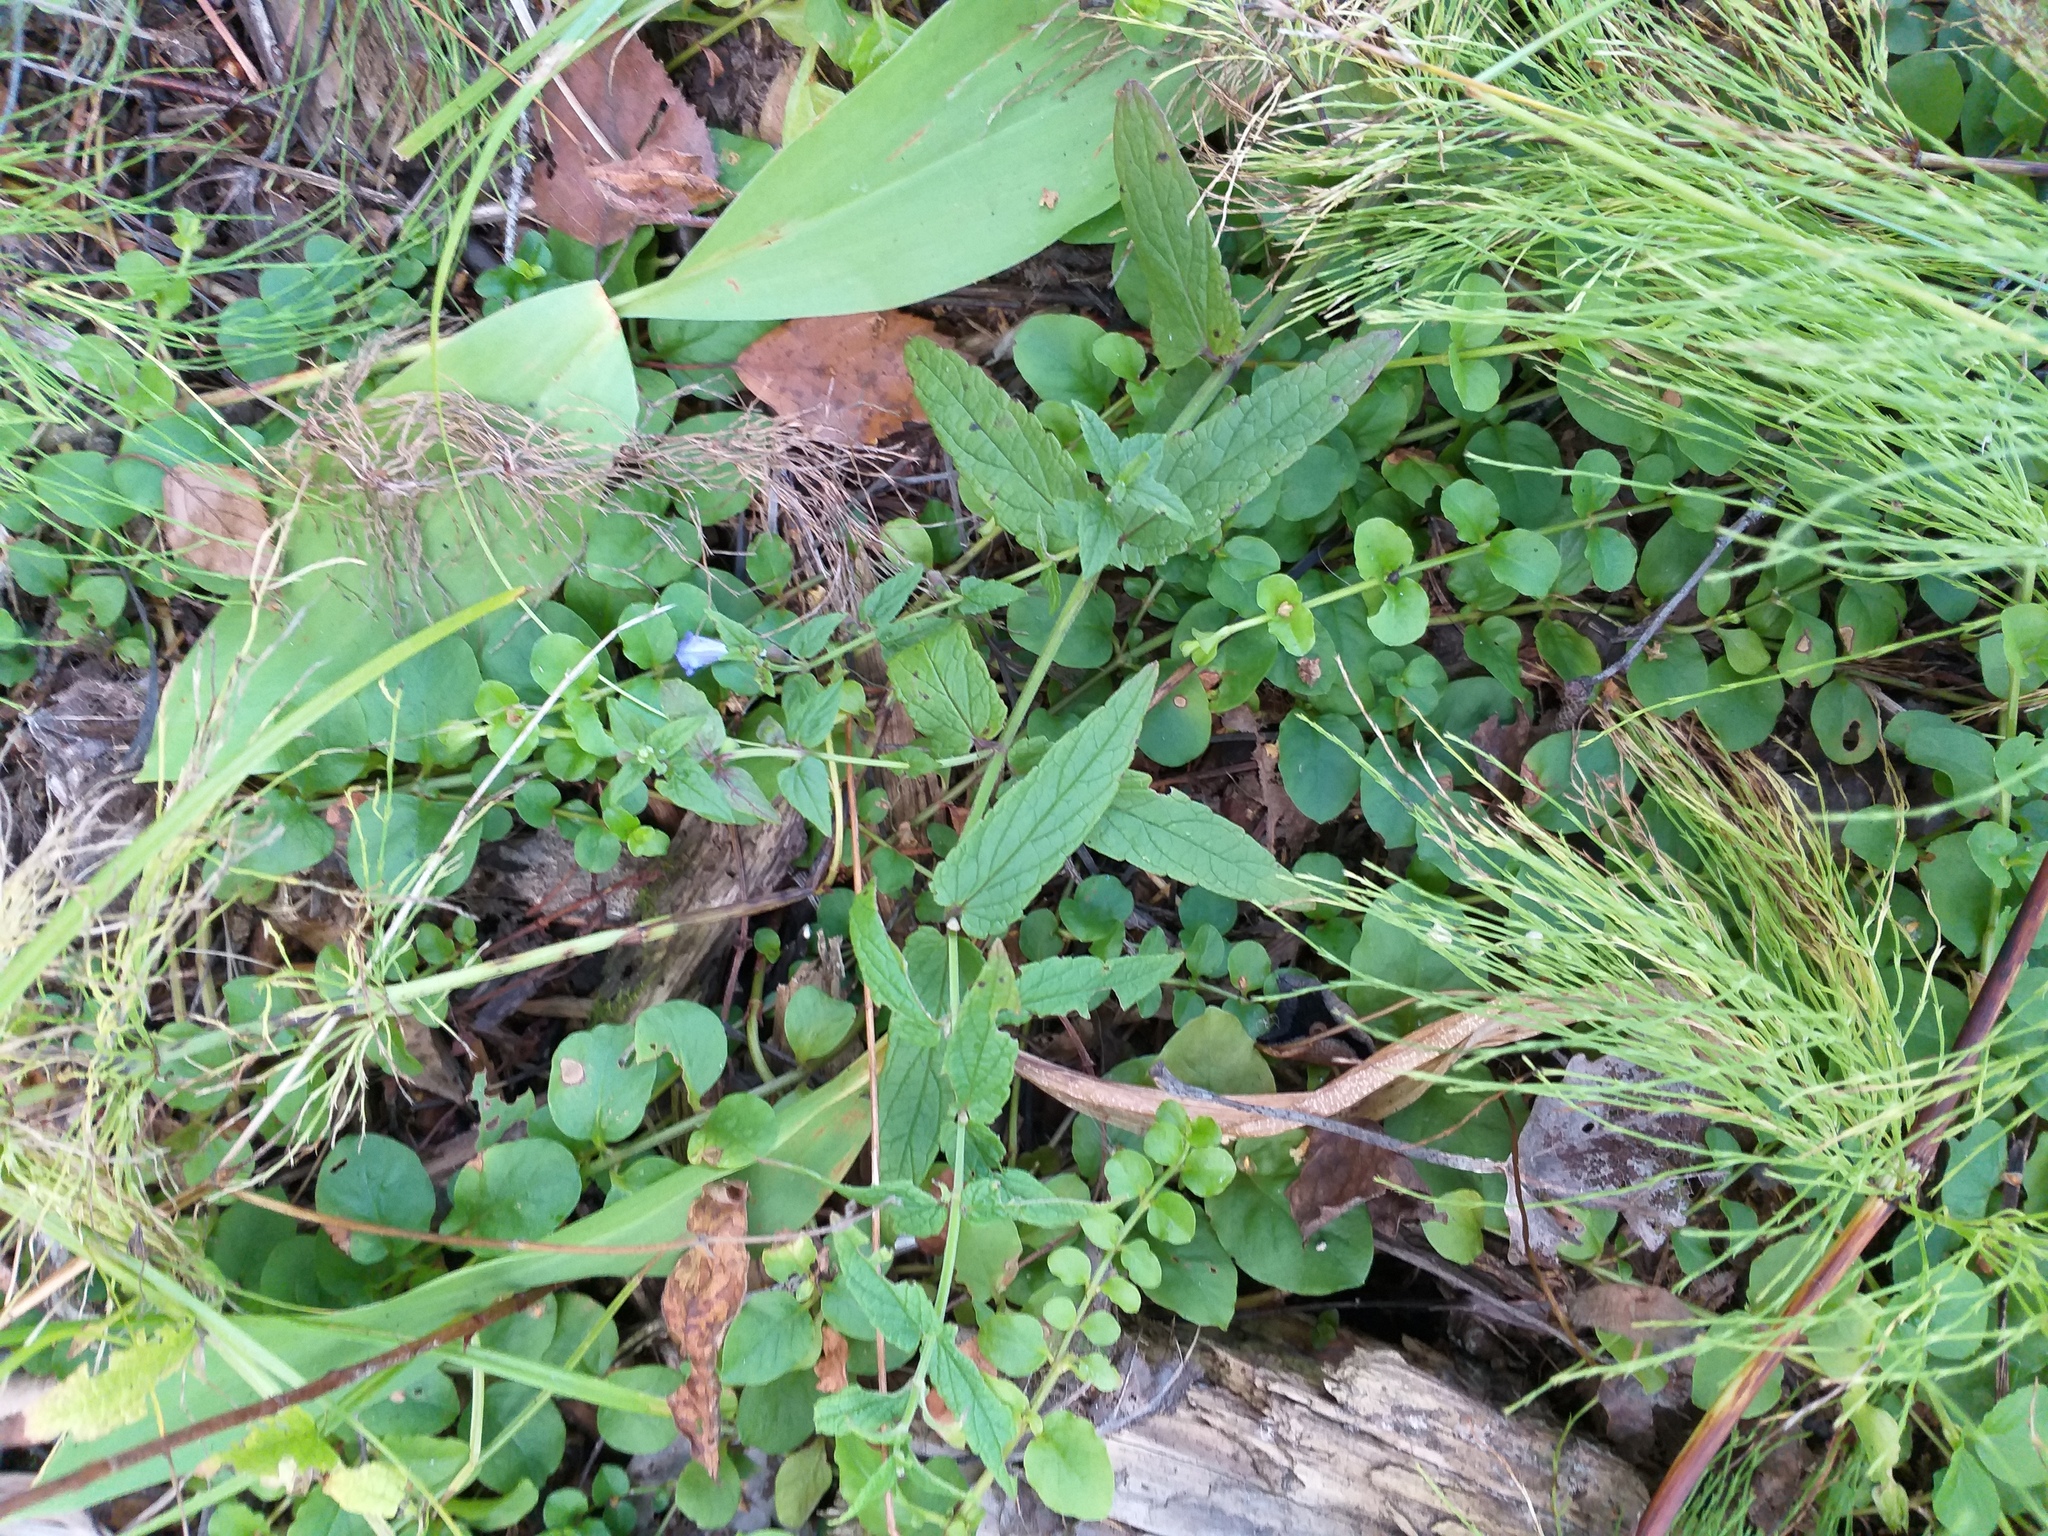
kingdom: Plantae
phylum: Tracheophyta
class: Magnoliopsida
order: Lamiales
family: Lamiaceae
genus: Scutellaria
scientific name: Scutellaria galericulata
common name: Skullcap
